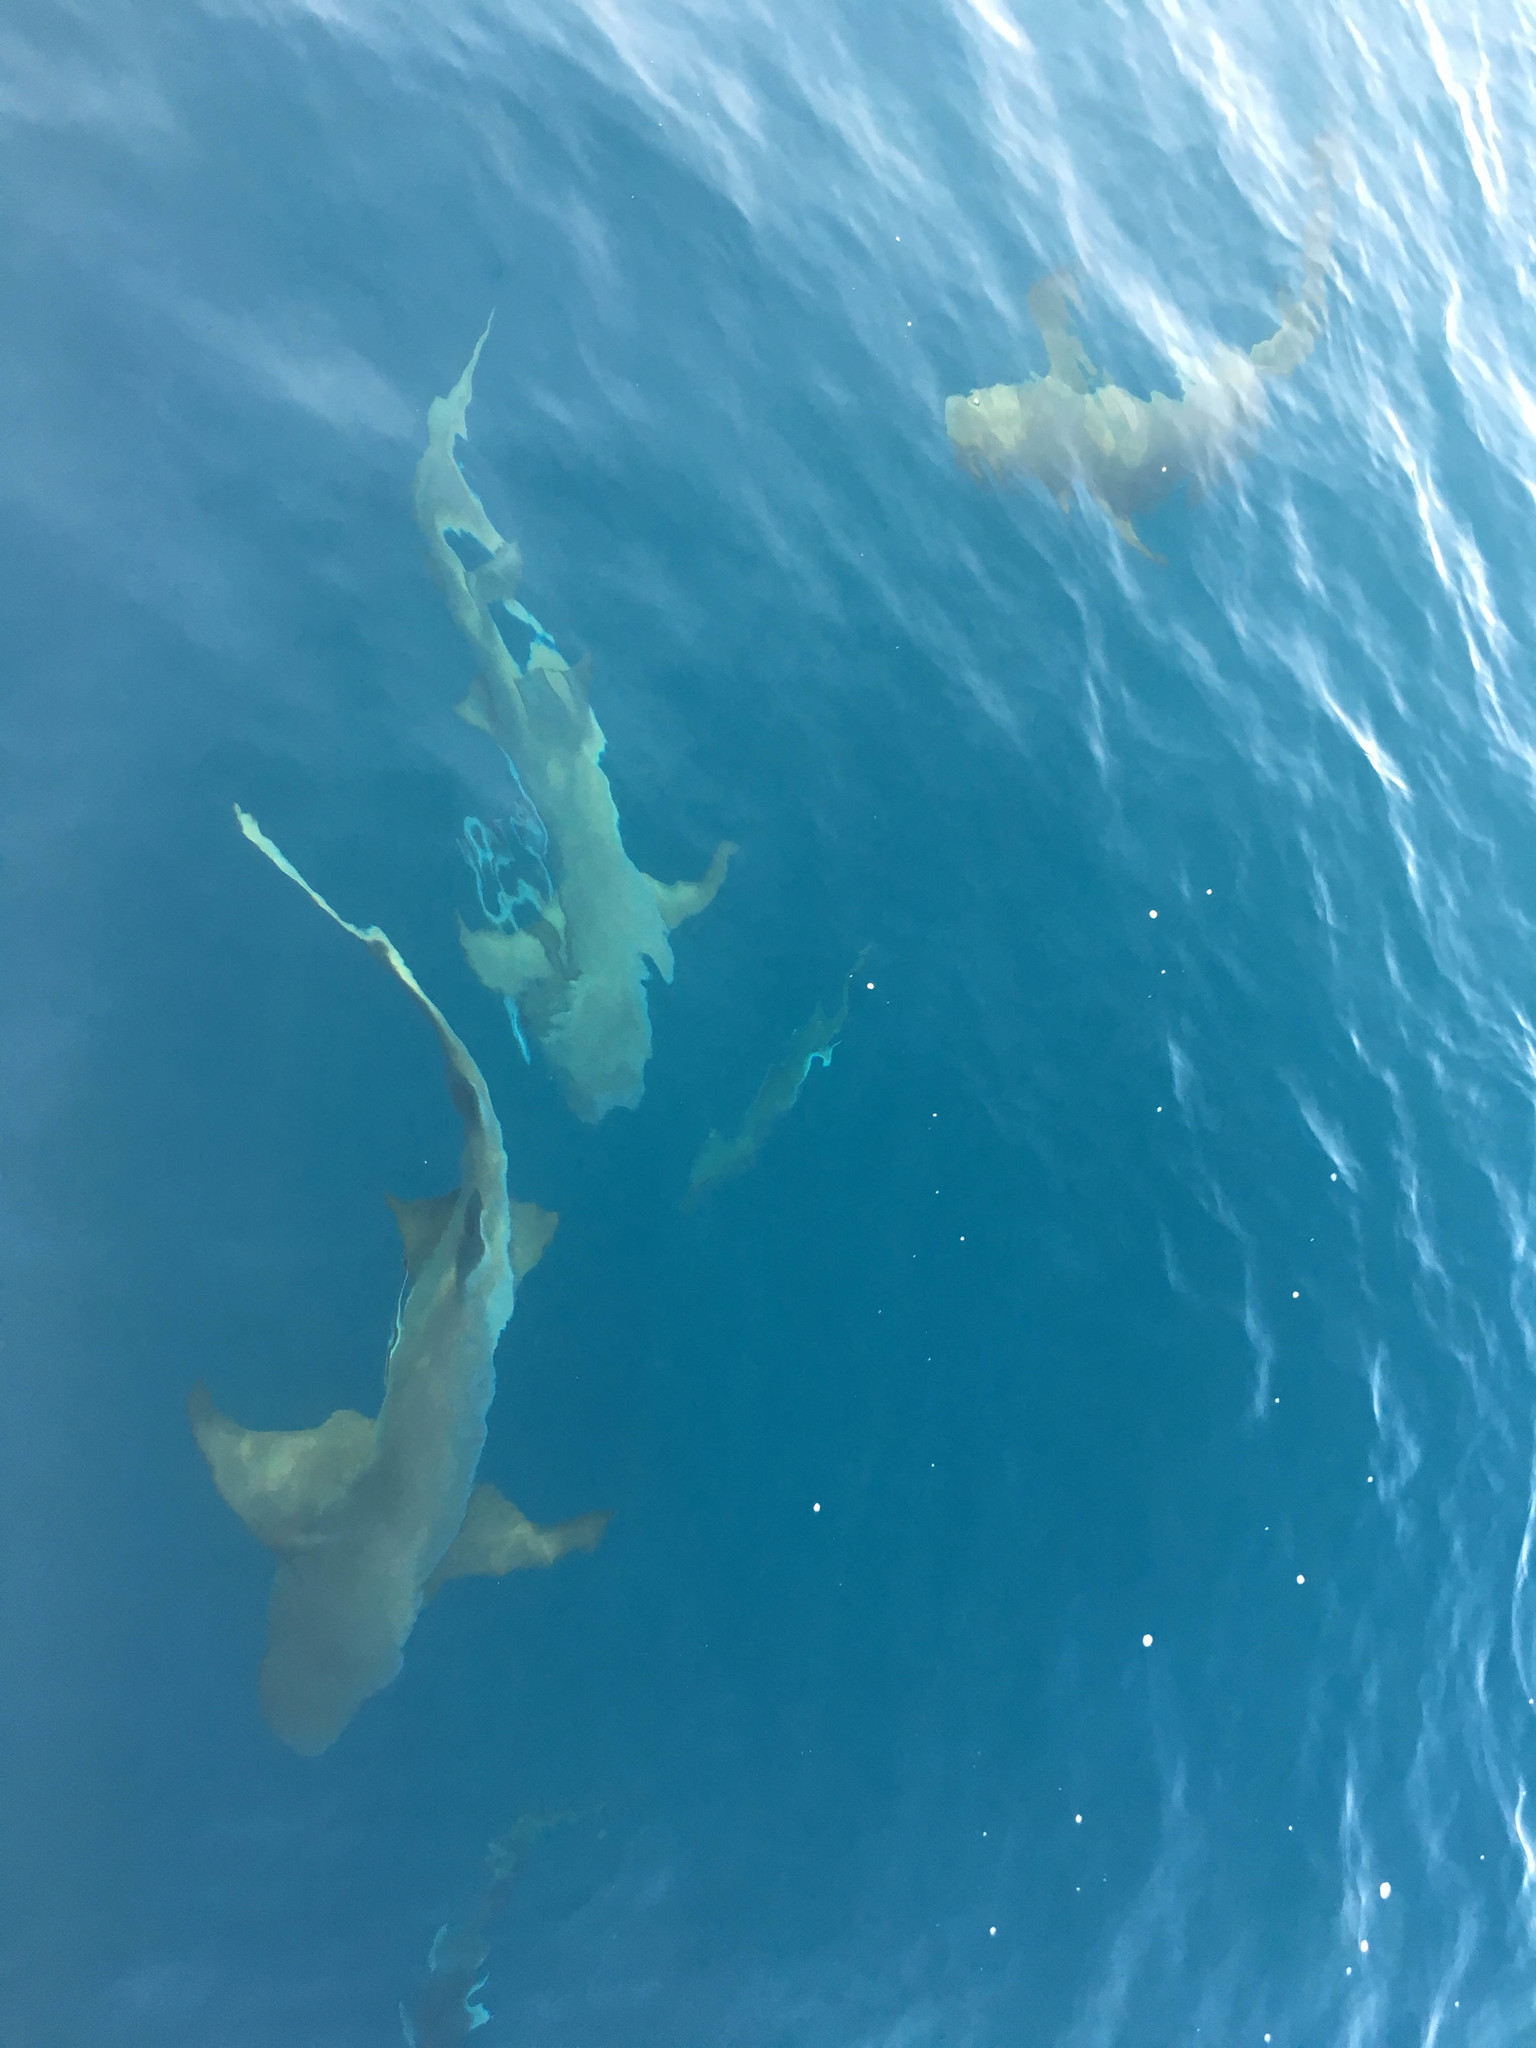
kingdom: Animalia
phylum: Chordata
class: Elasmobranchii
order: Orectolobiformes
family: Ginglymostomatidae
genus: Nebrius
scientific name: Nebrius ferrugineus
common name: Tawny nurse shark
